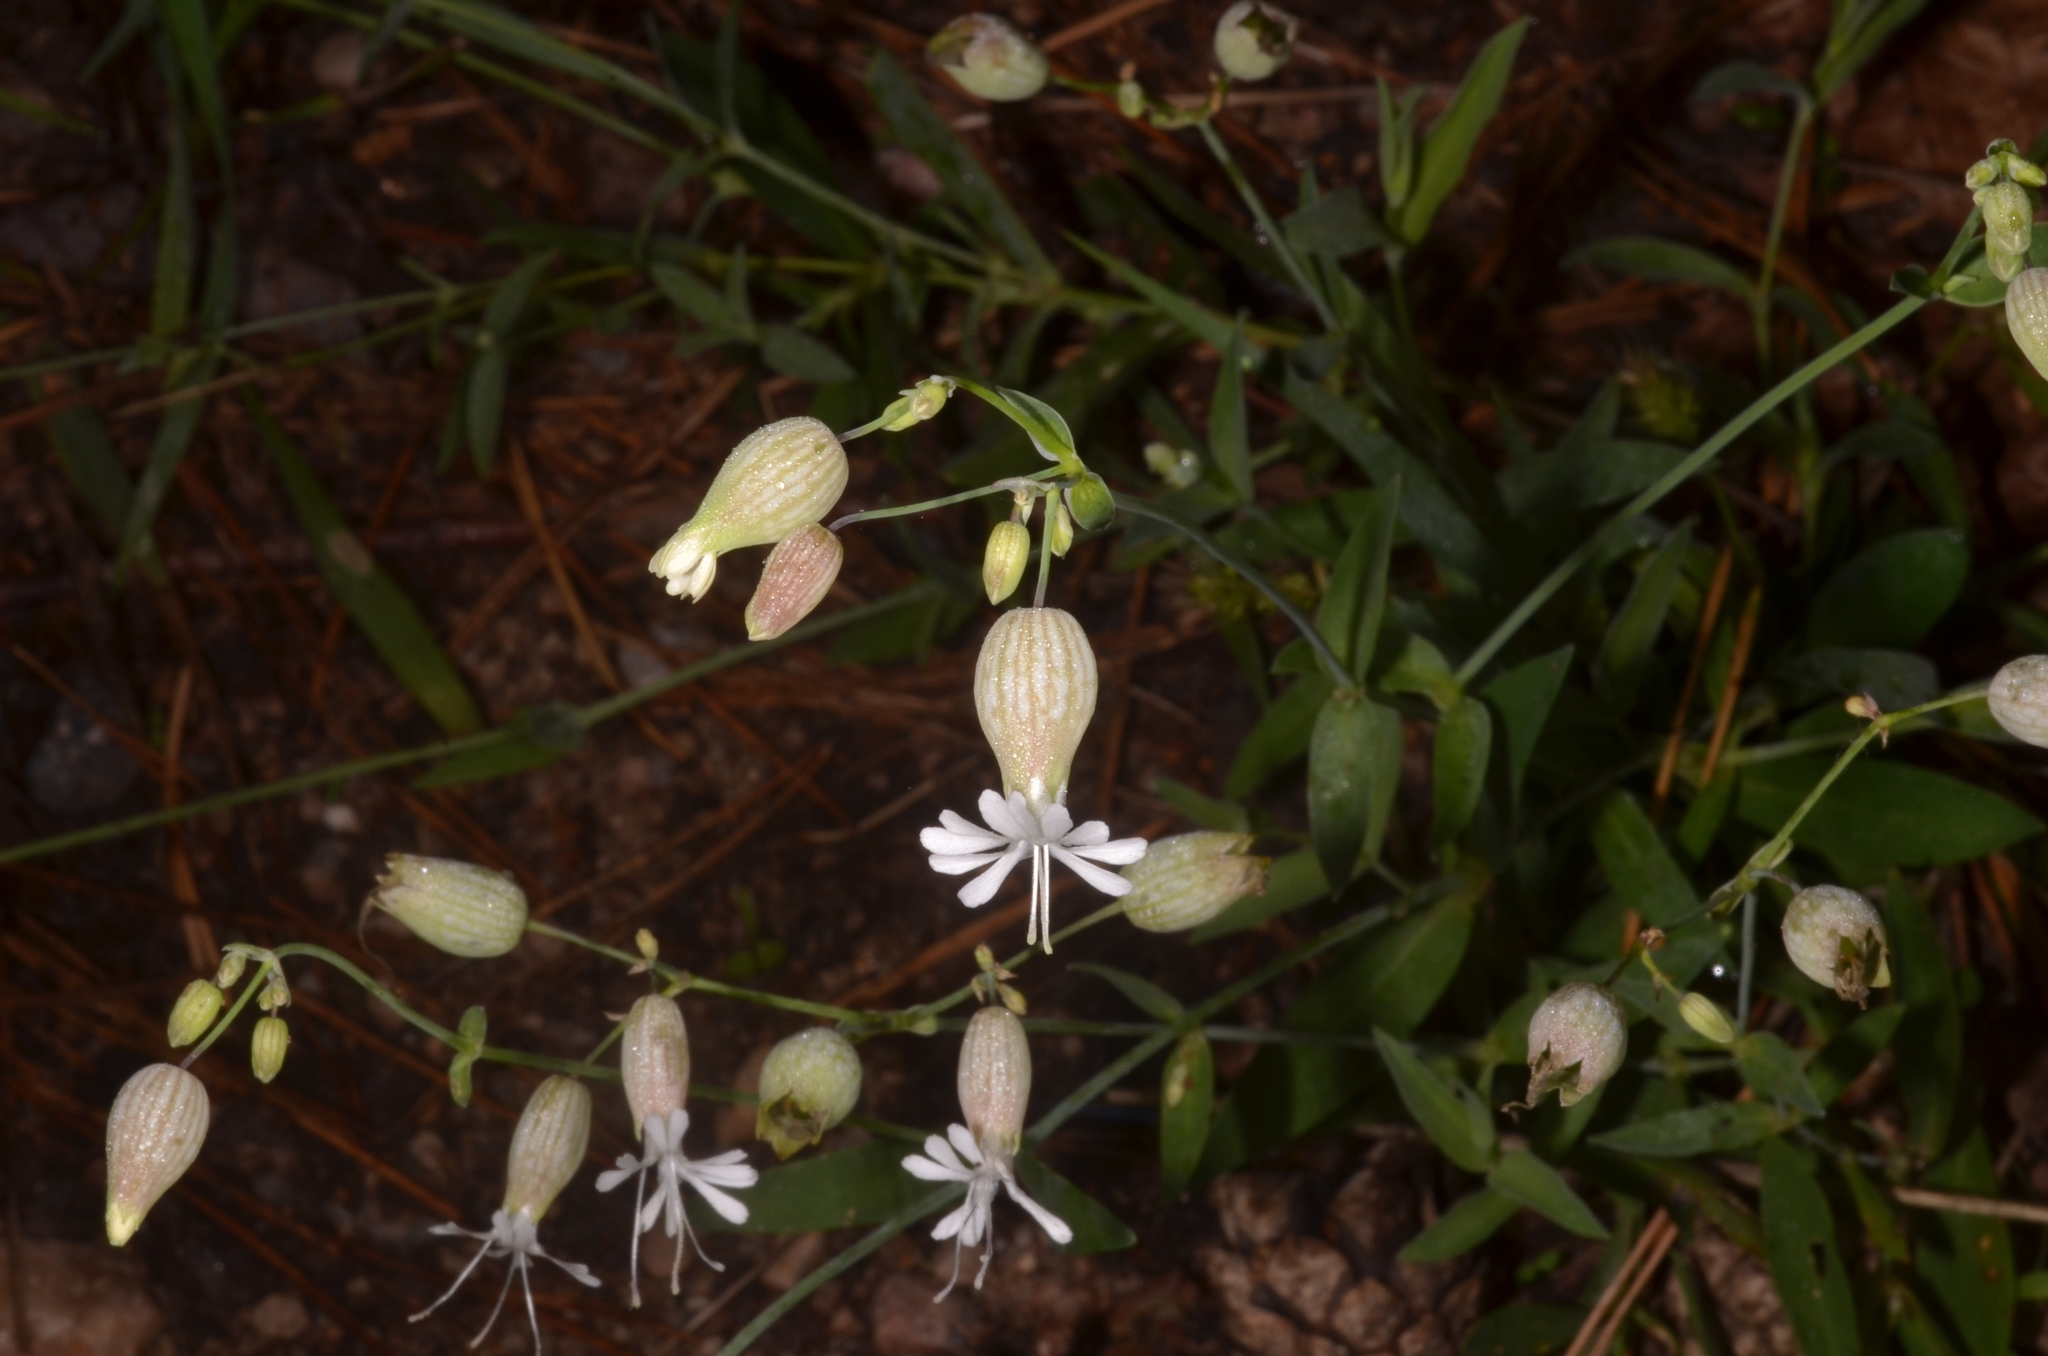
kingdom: Plantae
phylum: Tracheophyta
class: Magnoliopsida
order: Caryophyllales
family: Caryophyllaceae
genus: Silene
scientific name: Silene vulgaris
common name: Bladder campion
